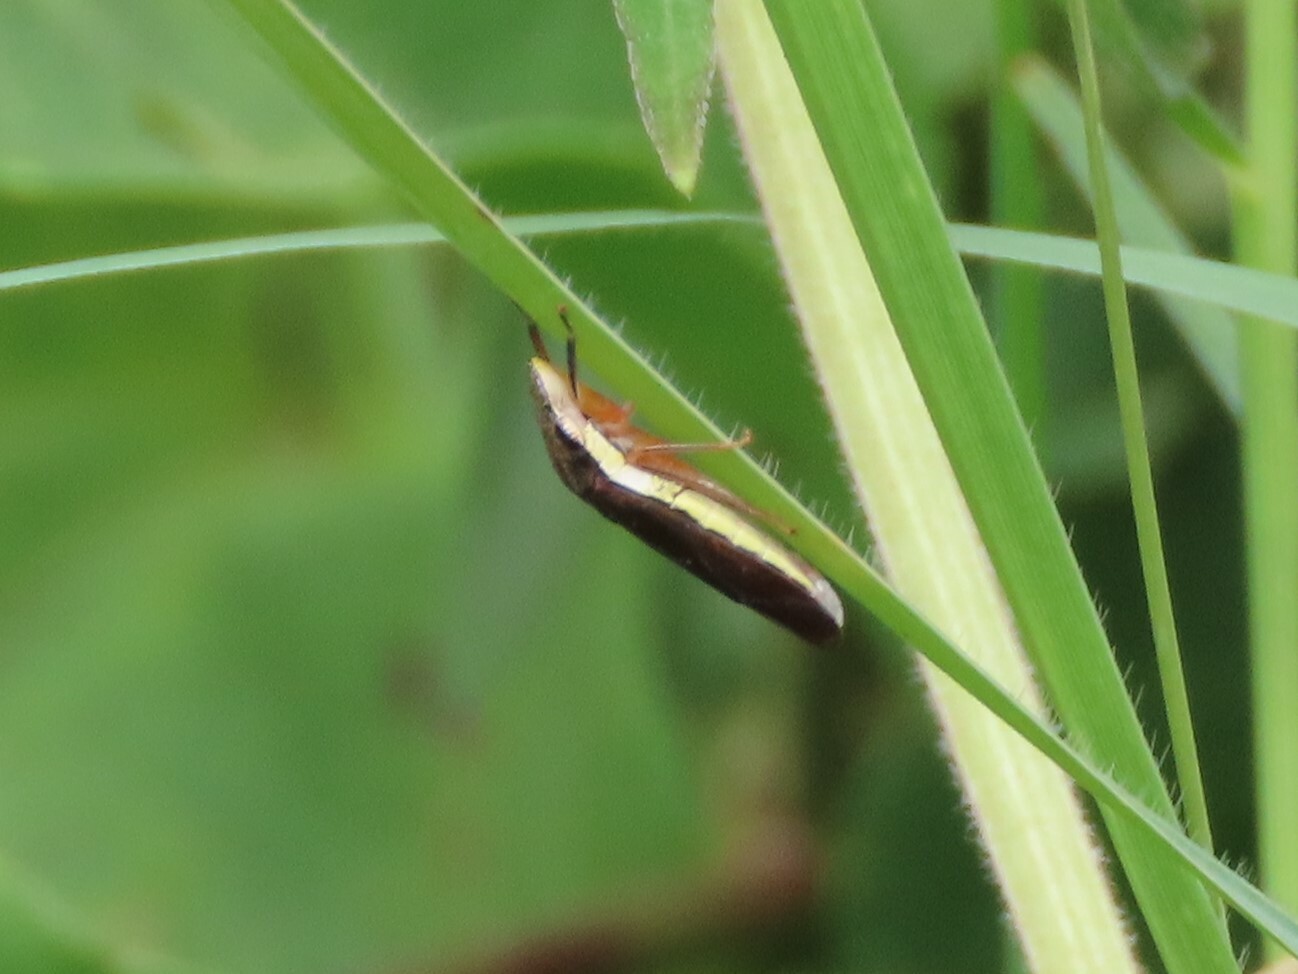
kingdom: Animalia
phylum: Arthropoda
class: Insecta
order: Hemiptera
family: Cicadellidae
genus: Homalodisca
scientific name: Homalodisca insolita
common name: Johnson grass sharpshooter
